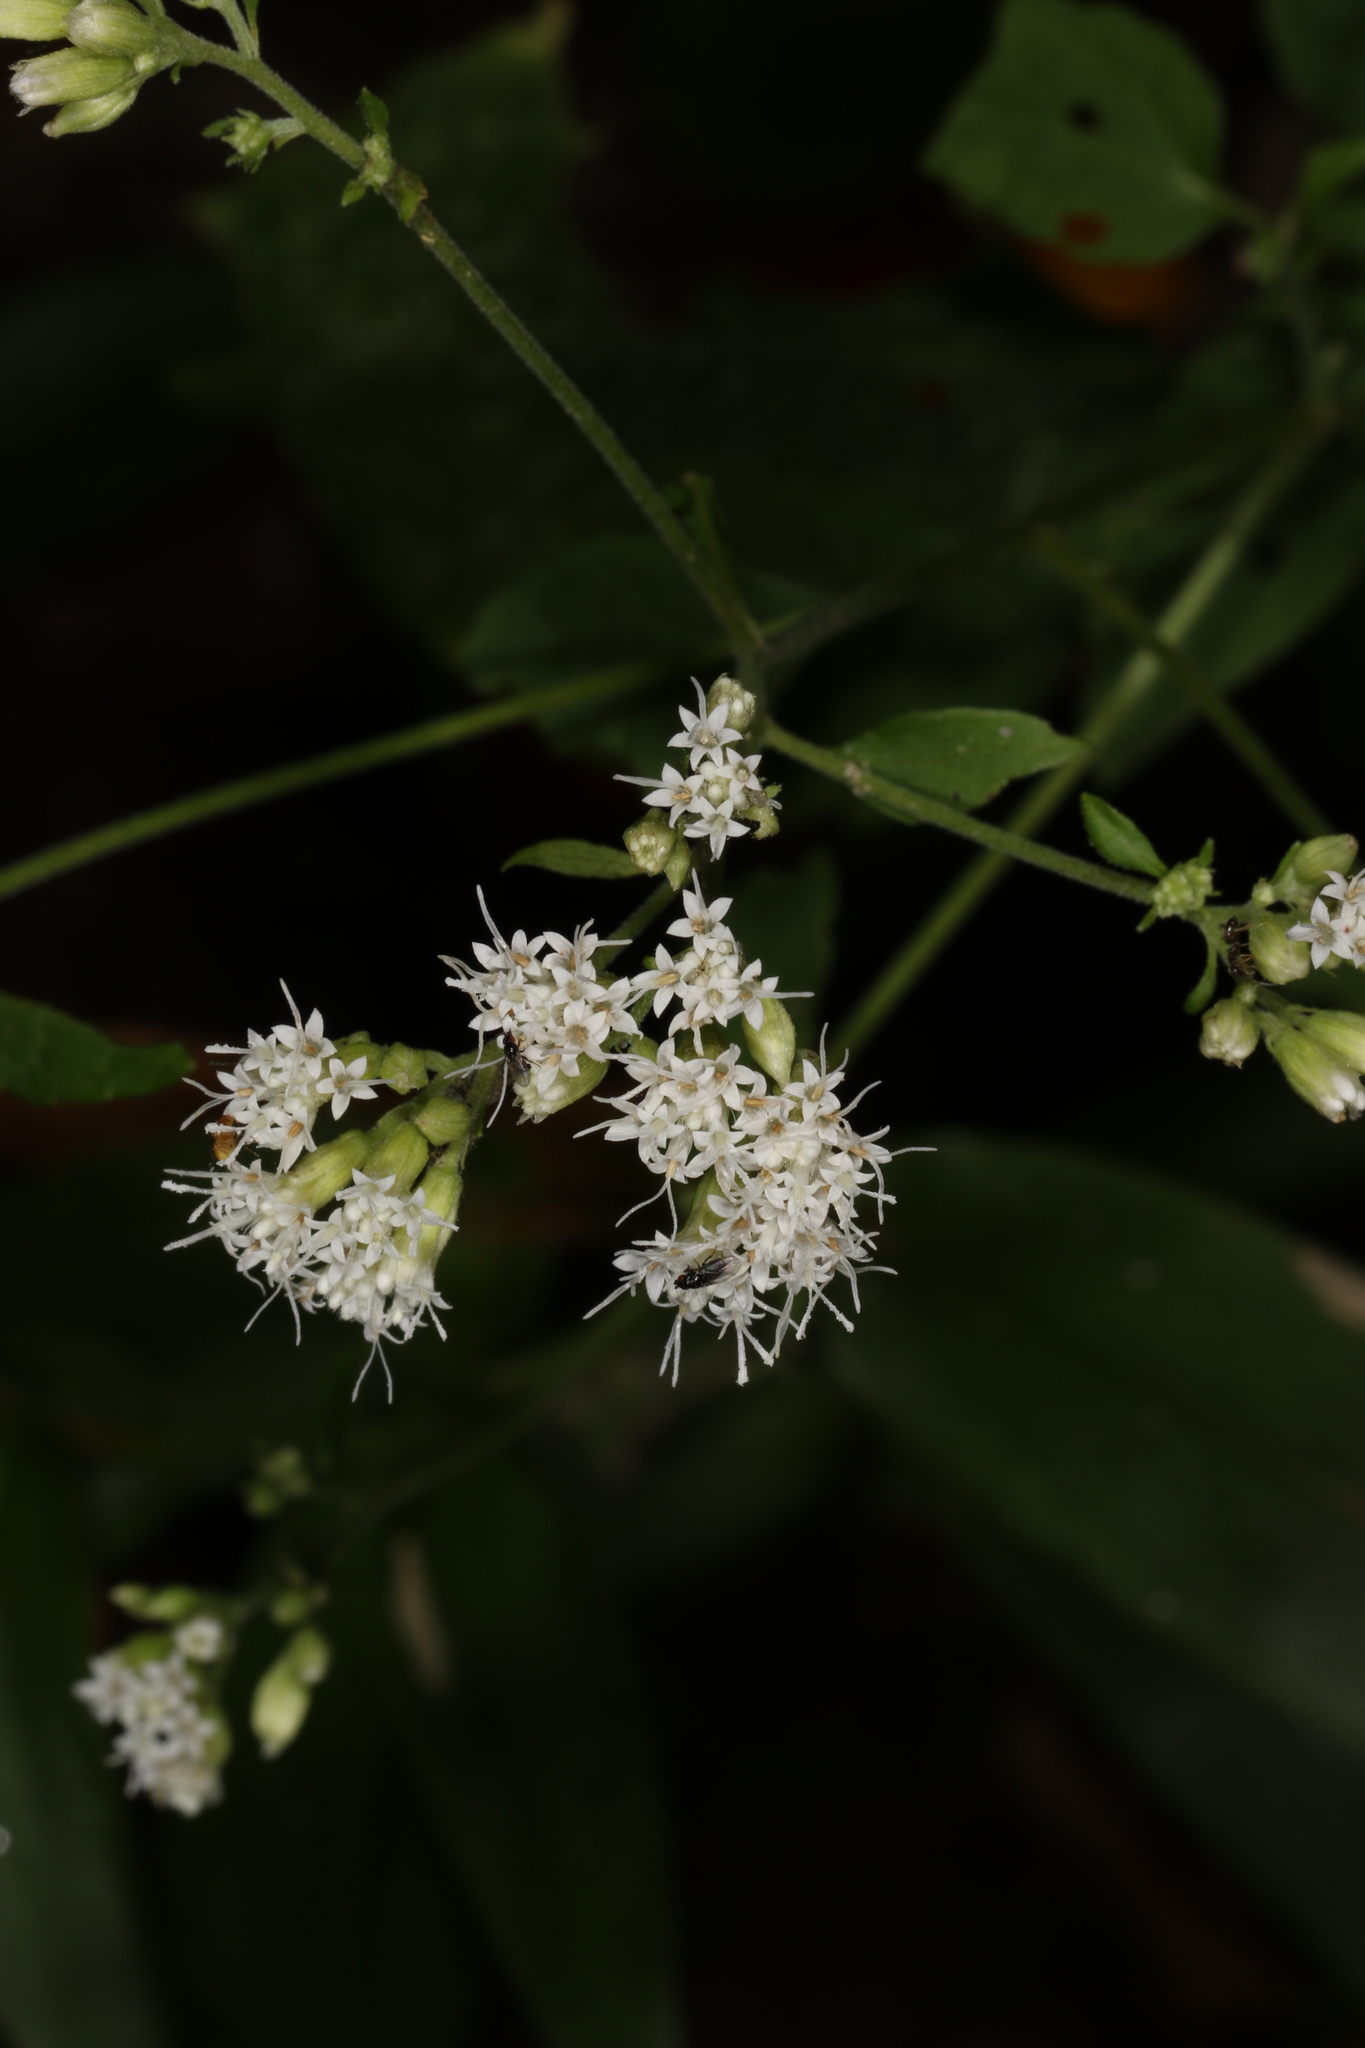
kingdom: Plantae
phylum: Tracheophyta
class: Magnoliopsida
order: Asterales
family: Asteraceae
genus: Ageratina
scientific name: Ageratina altissima
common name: White snakeroot
